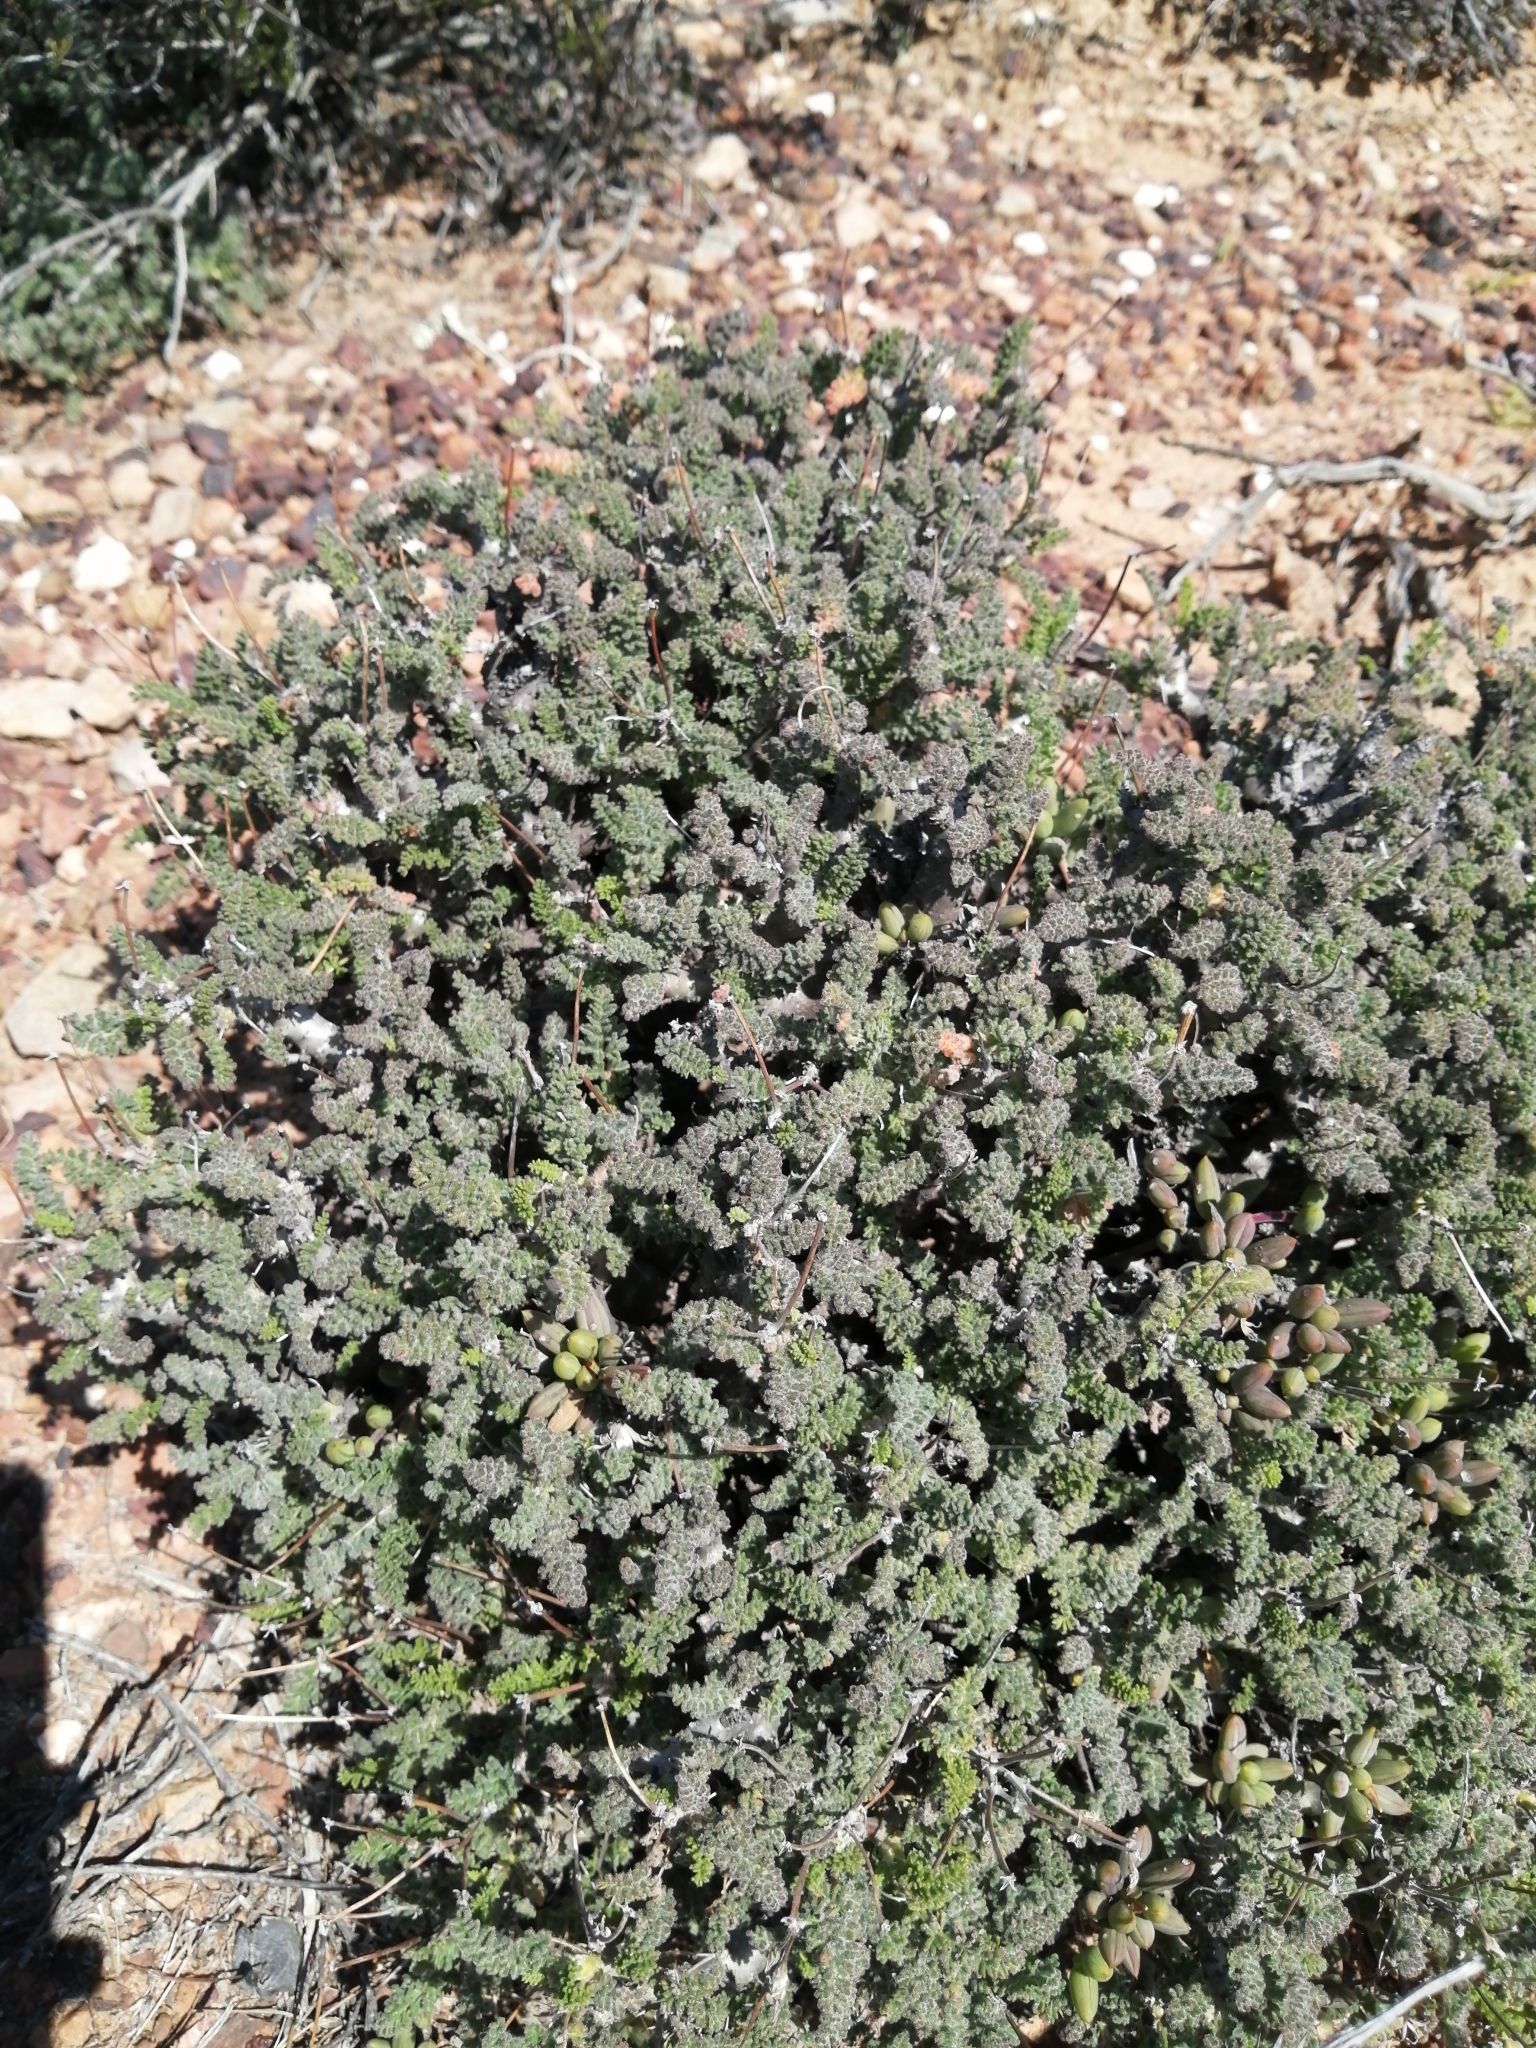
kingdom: Plantae
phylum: Tracheophyta
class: Magnoliopsida
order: Geraniales
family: Geraniaceae
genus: Pelargonium
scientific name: Pelargonium alternans
